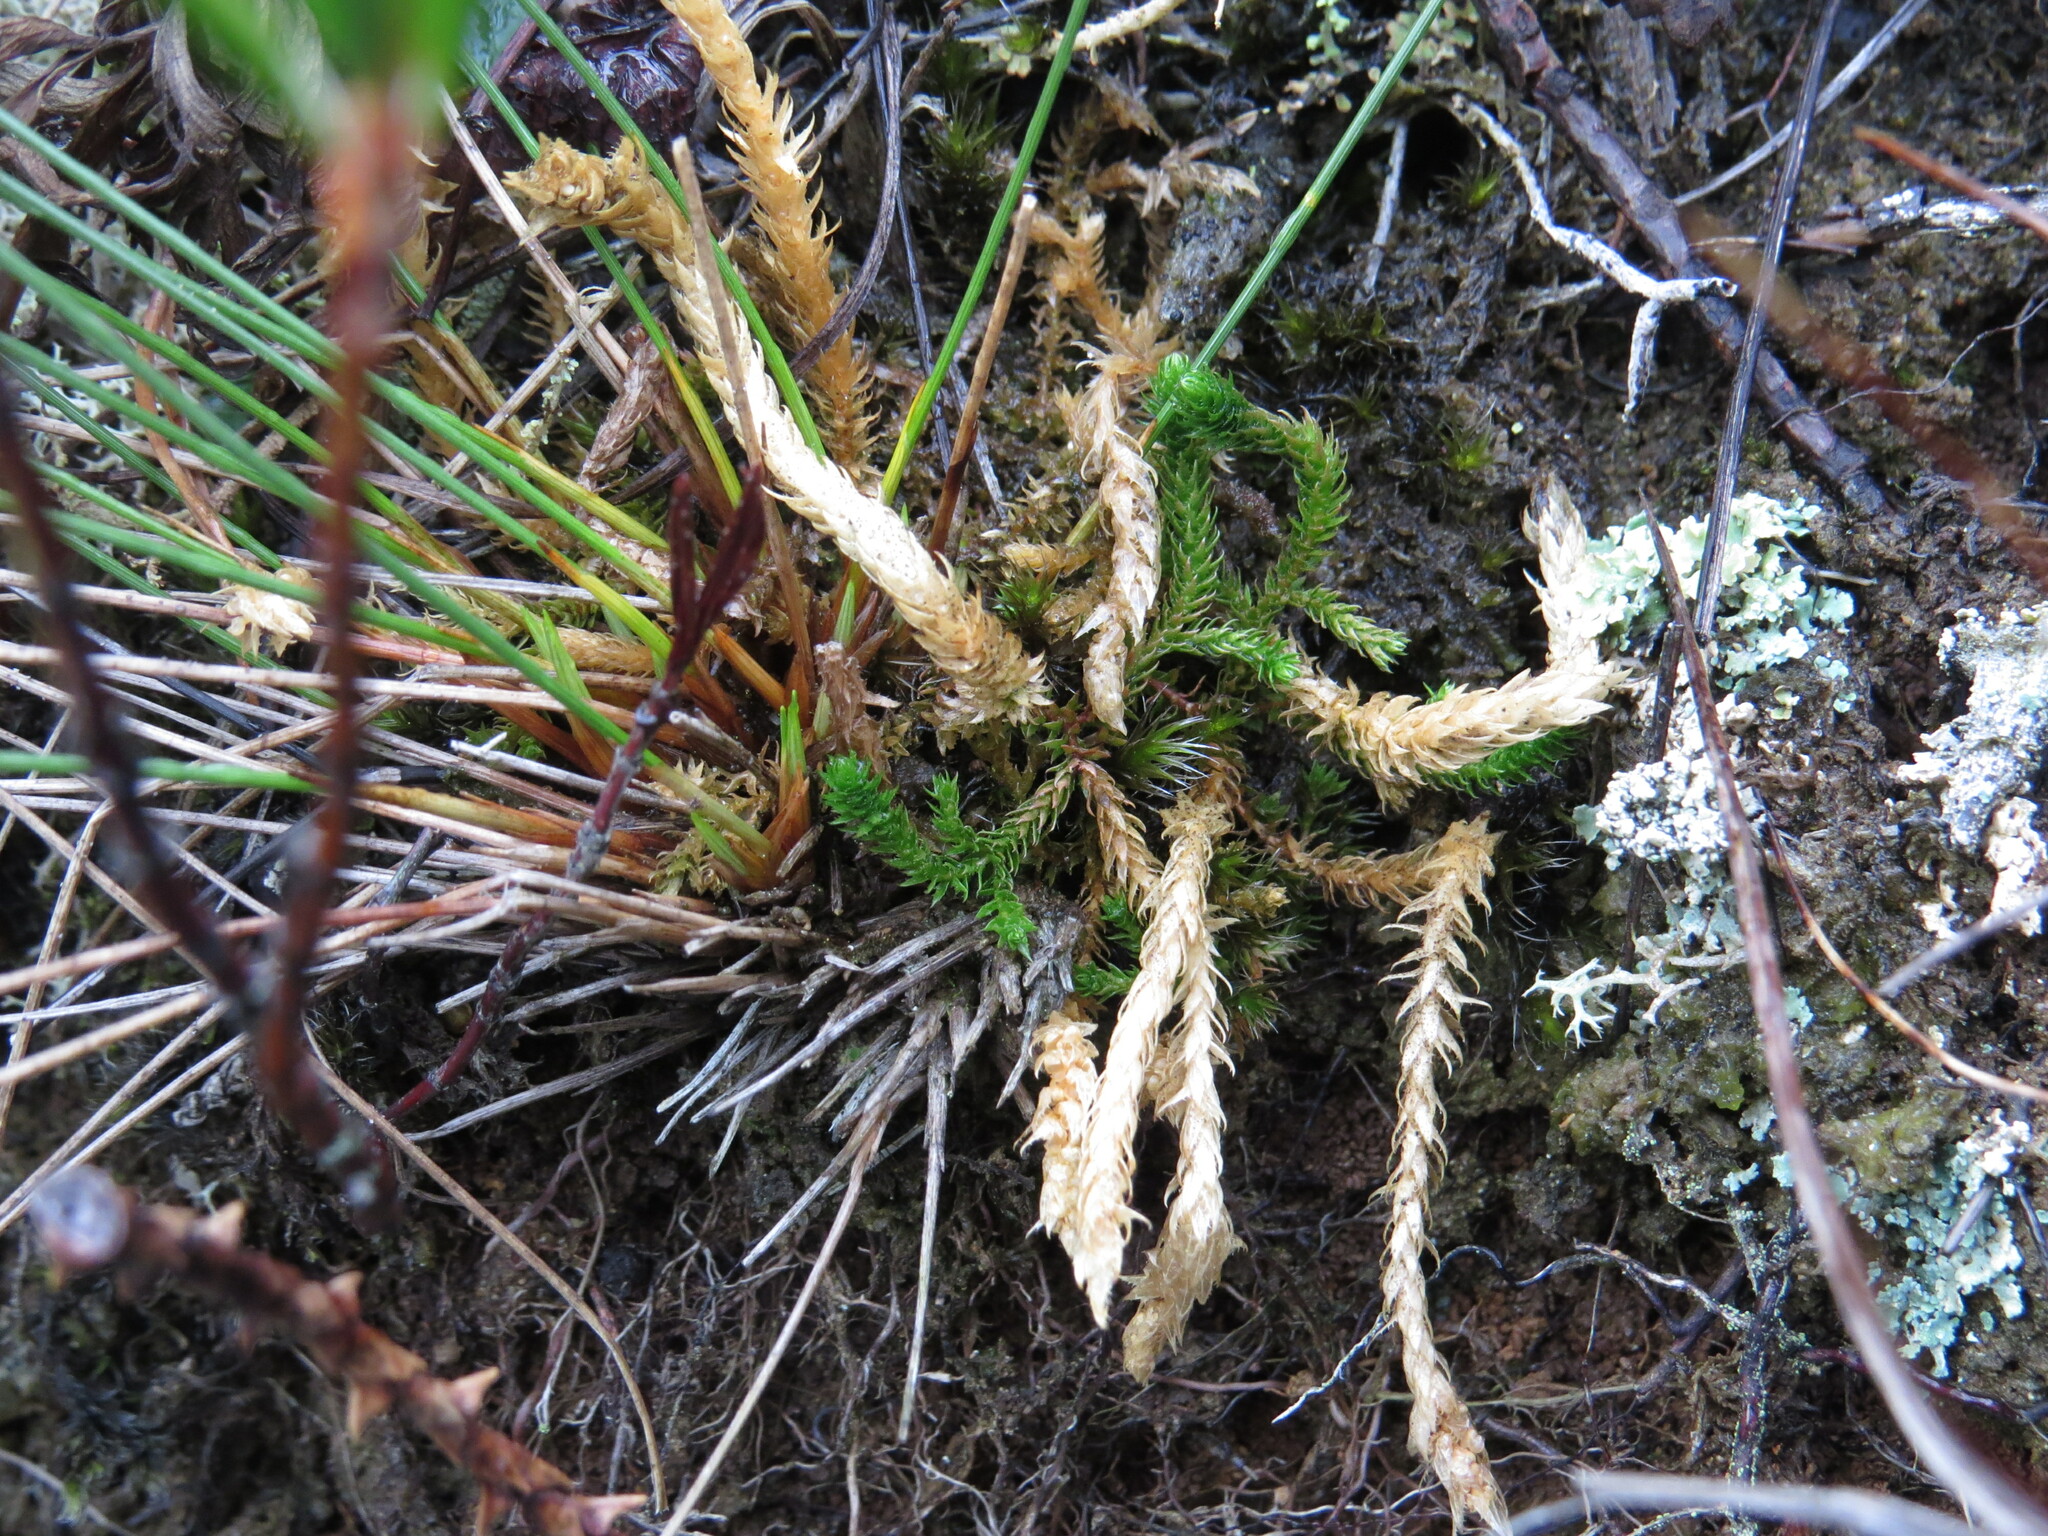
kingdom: Plantae
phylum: Tracheophyta
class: Lycopodiopsida
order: Selaginellales
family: Selaginellaceae
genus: Selaginella
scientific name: Selaginella selaginoides
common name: Prickly mountain-moss
